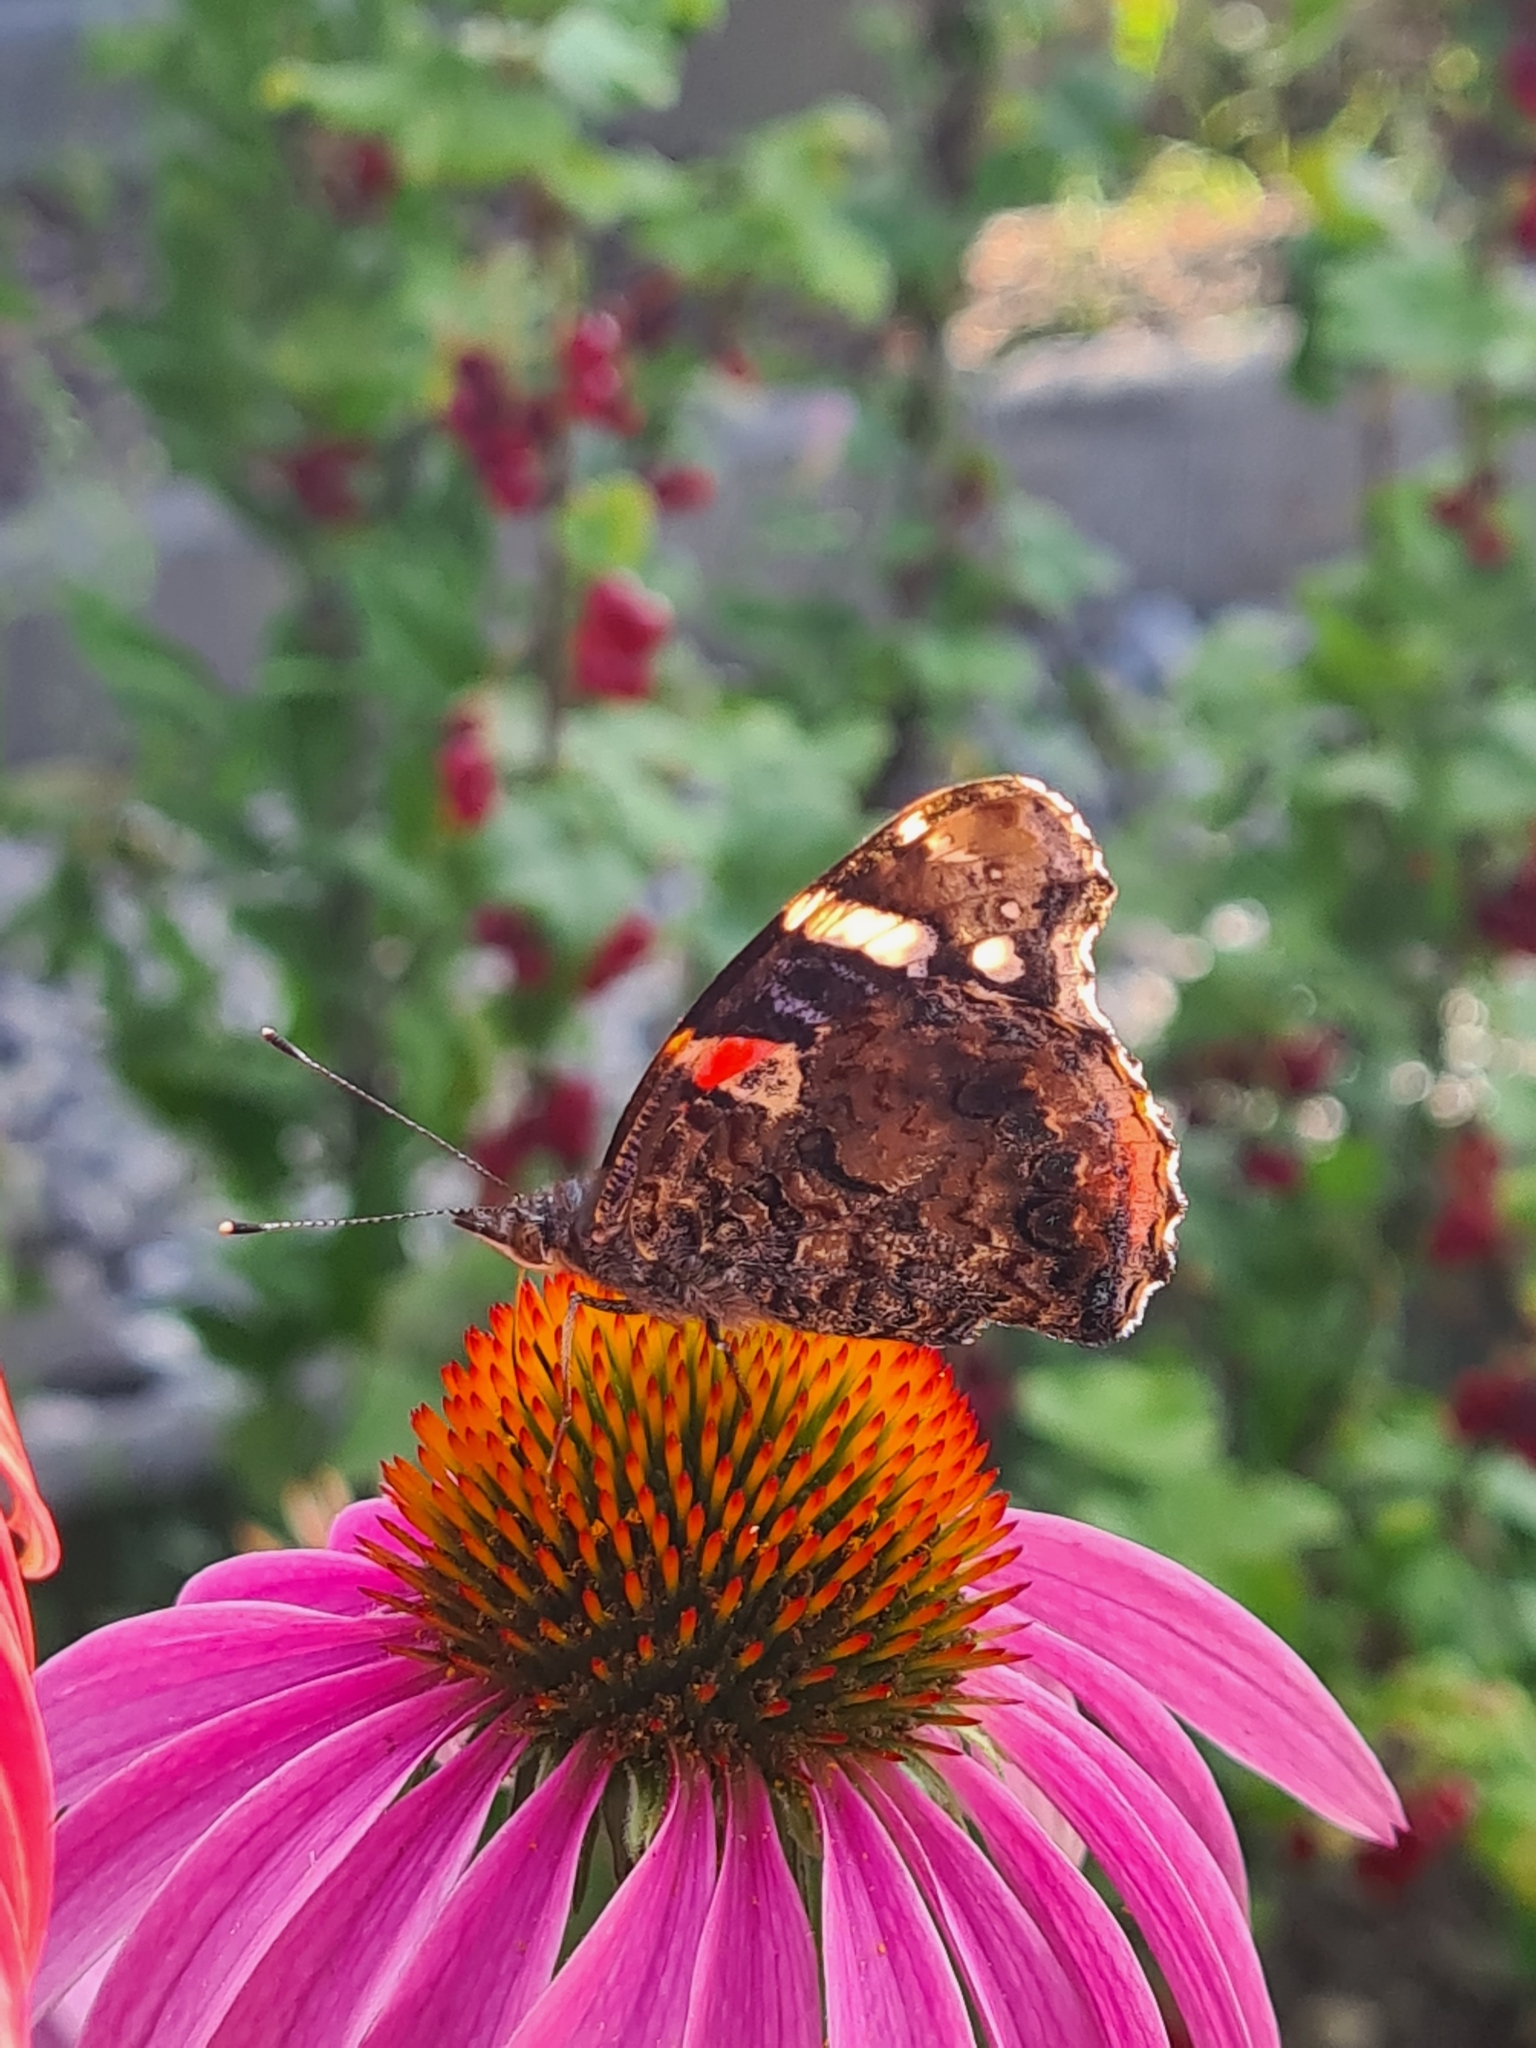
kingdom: Animalia
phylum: Arthropoda
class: Insecta
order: Lepidoptera
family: Nymphalidae
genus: Vanessa
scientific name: Vanessa atalanta
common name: Red admiral
